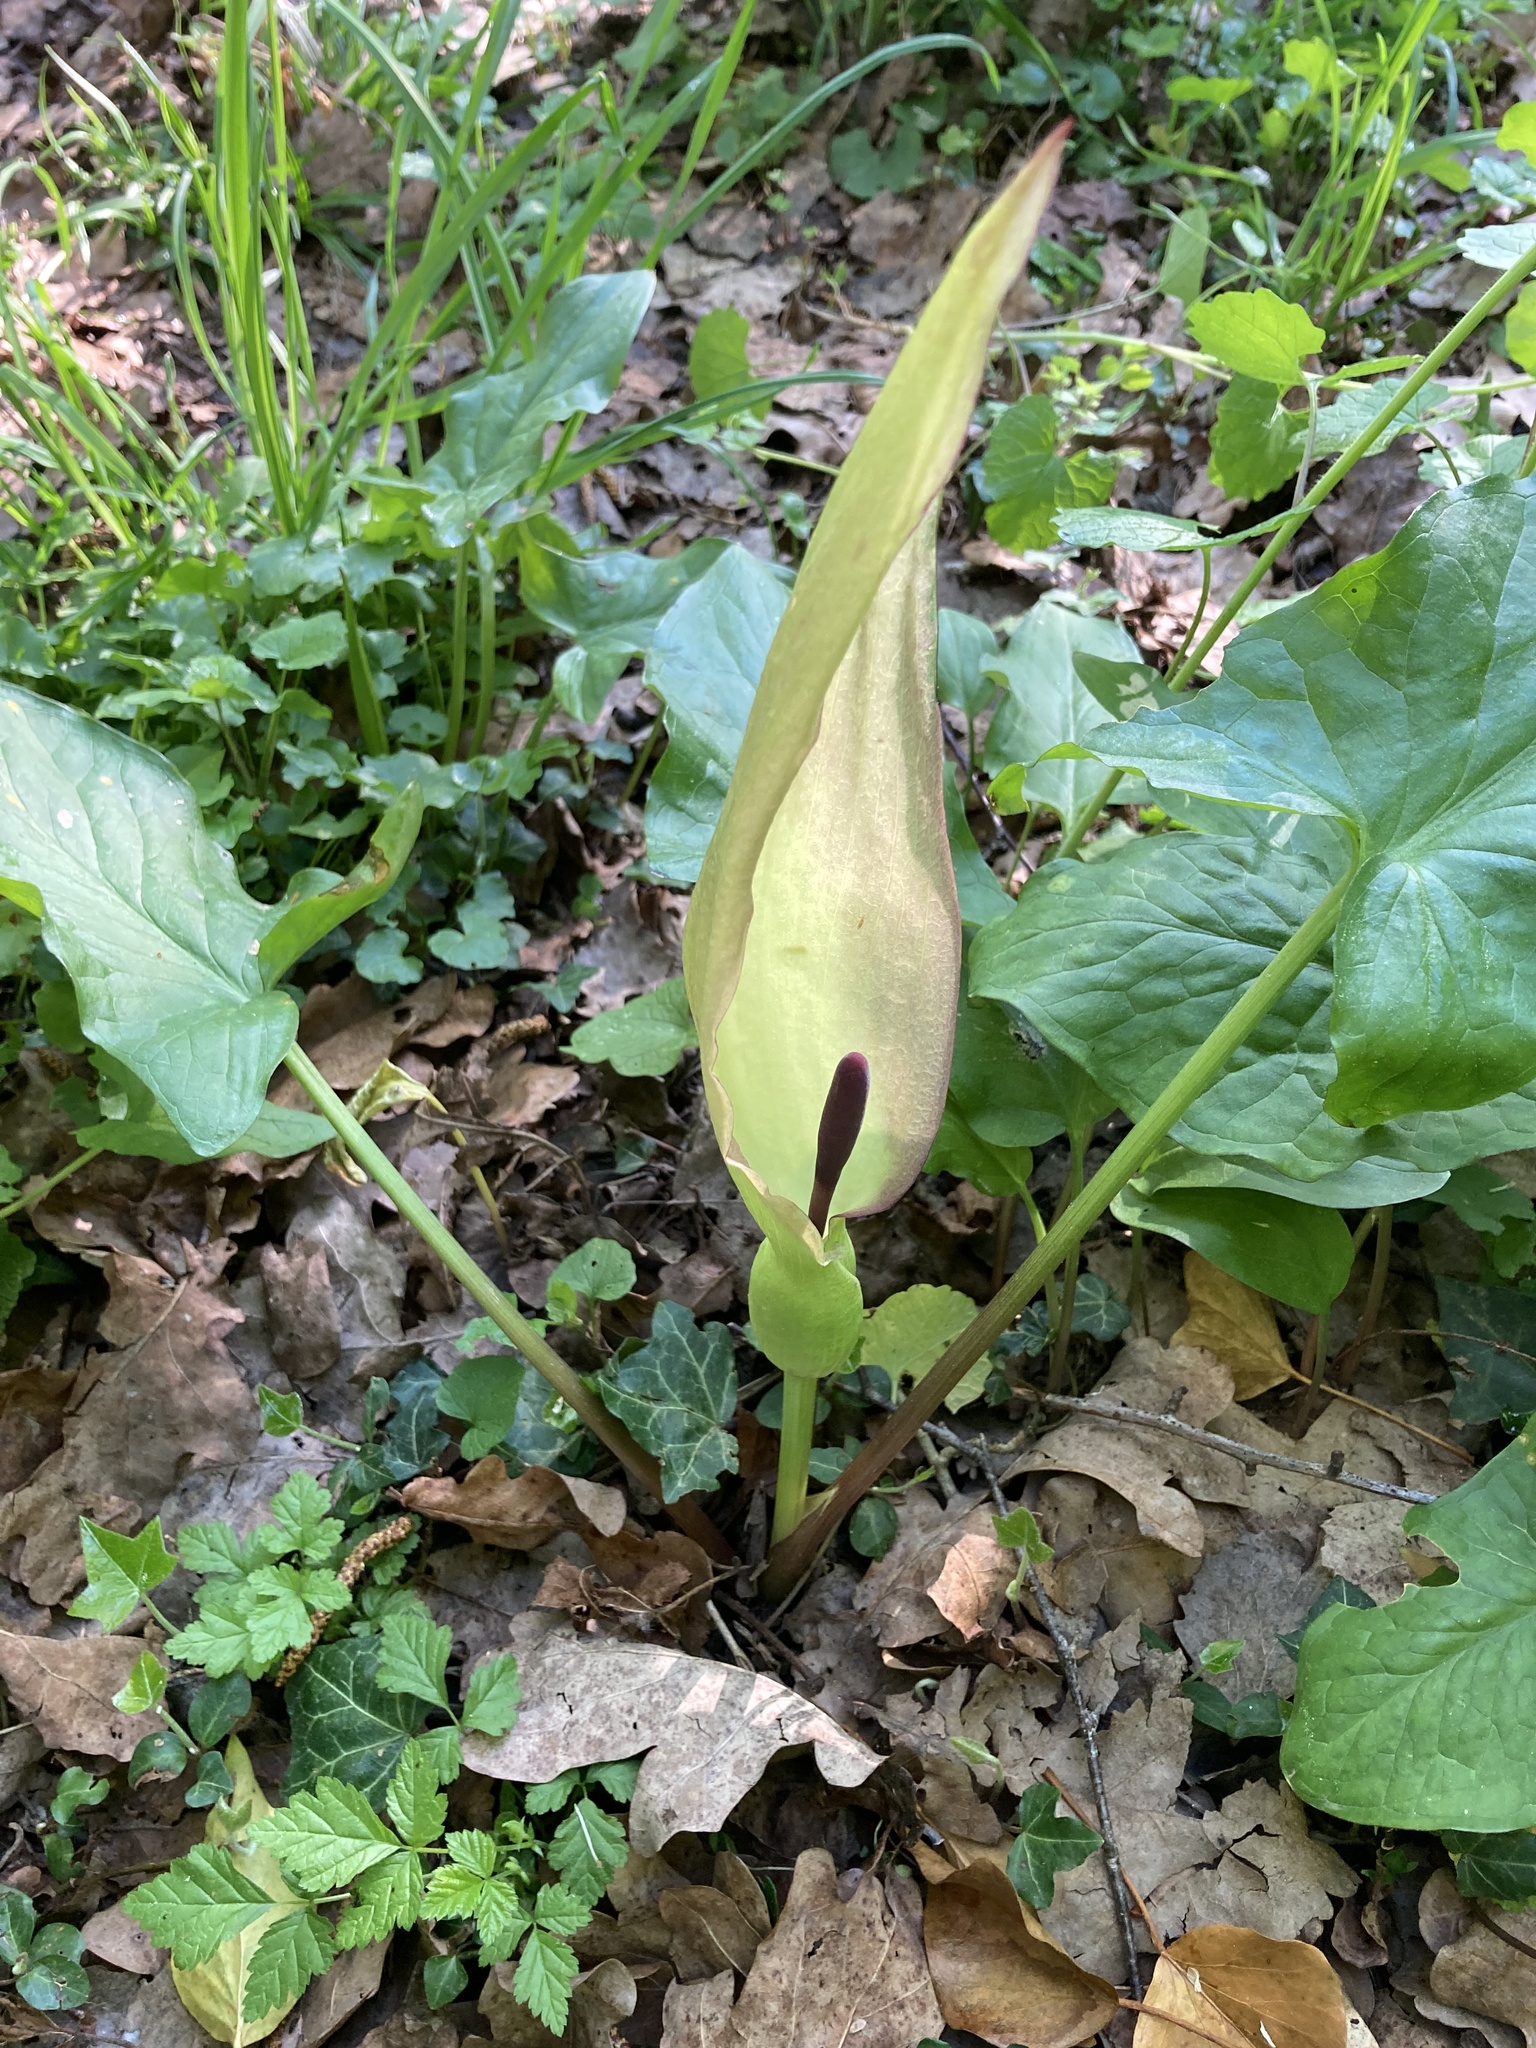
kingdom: Plantae
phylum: Tracheophyta
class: Liliopsida
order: Alismatales
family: Araceae
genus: Arum
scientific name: Arum maculatum
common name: Lords-and-ladies
